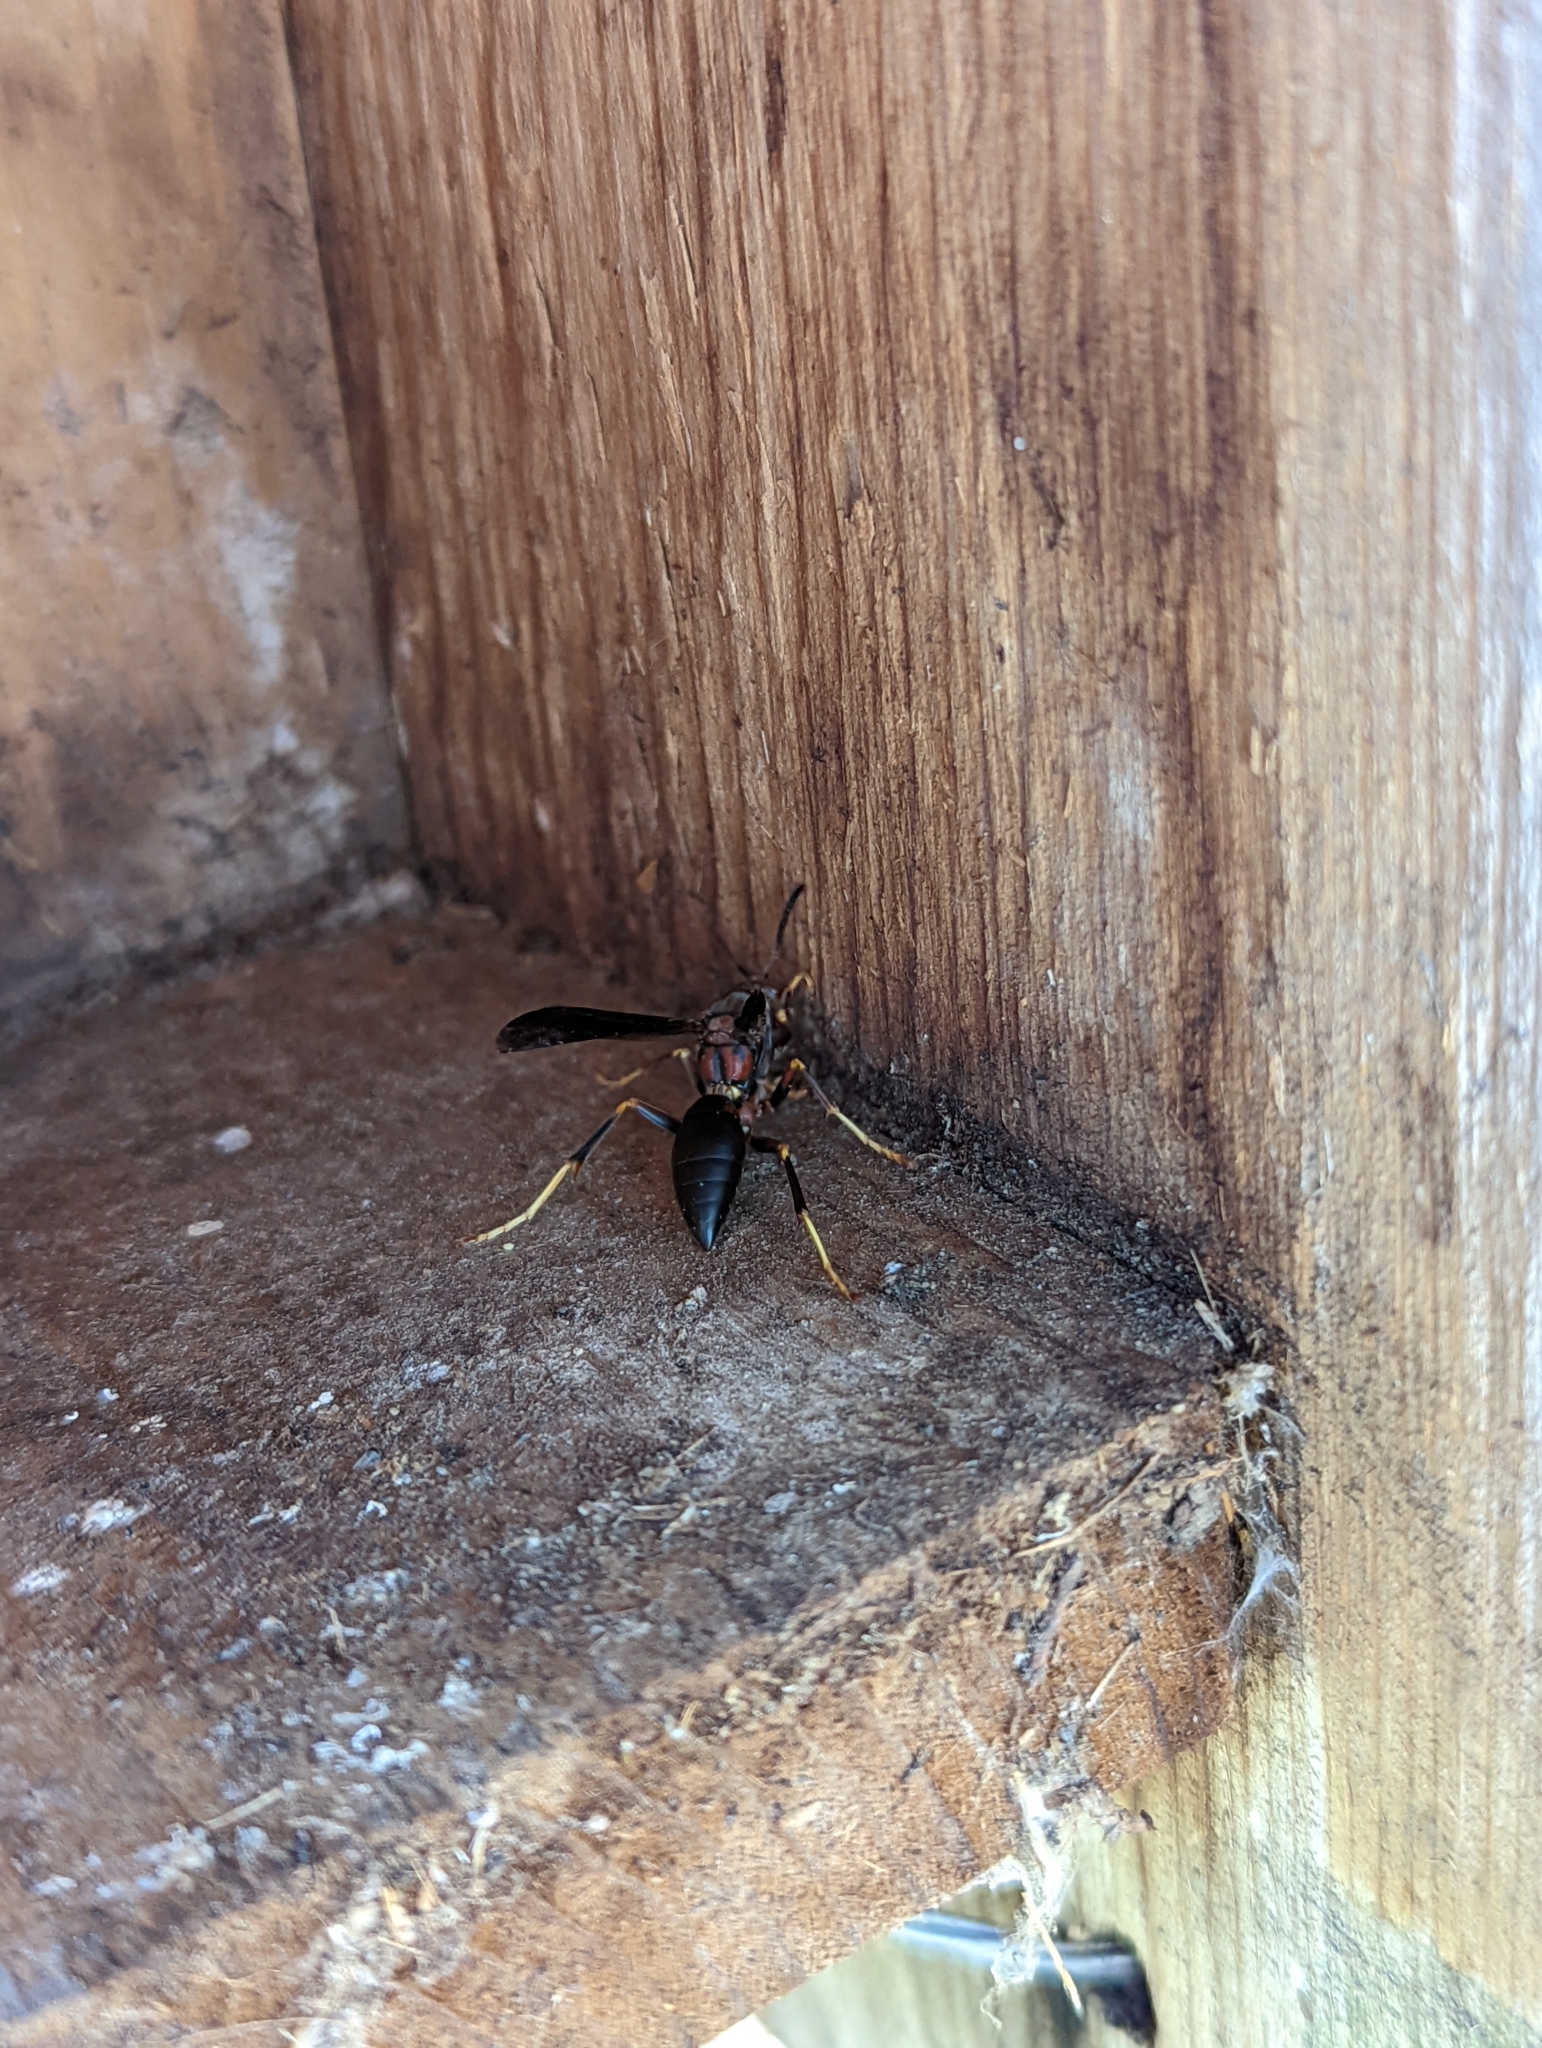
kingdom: Animalia
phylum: Arthropoda
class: Insecta
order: Hymenoptera
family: Eumenidae
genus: Polistes
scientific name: Polistes metricus
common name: Metric paper wasp
